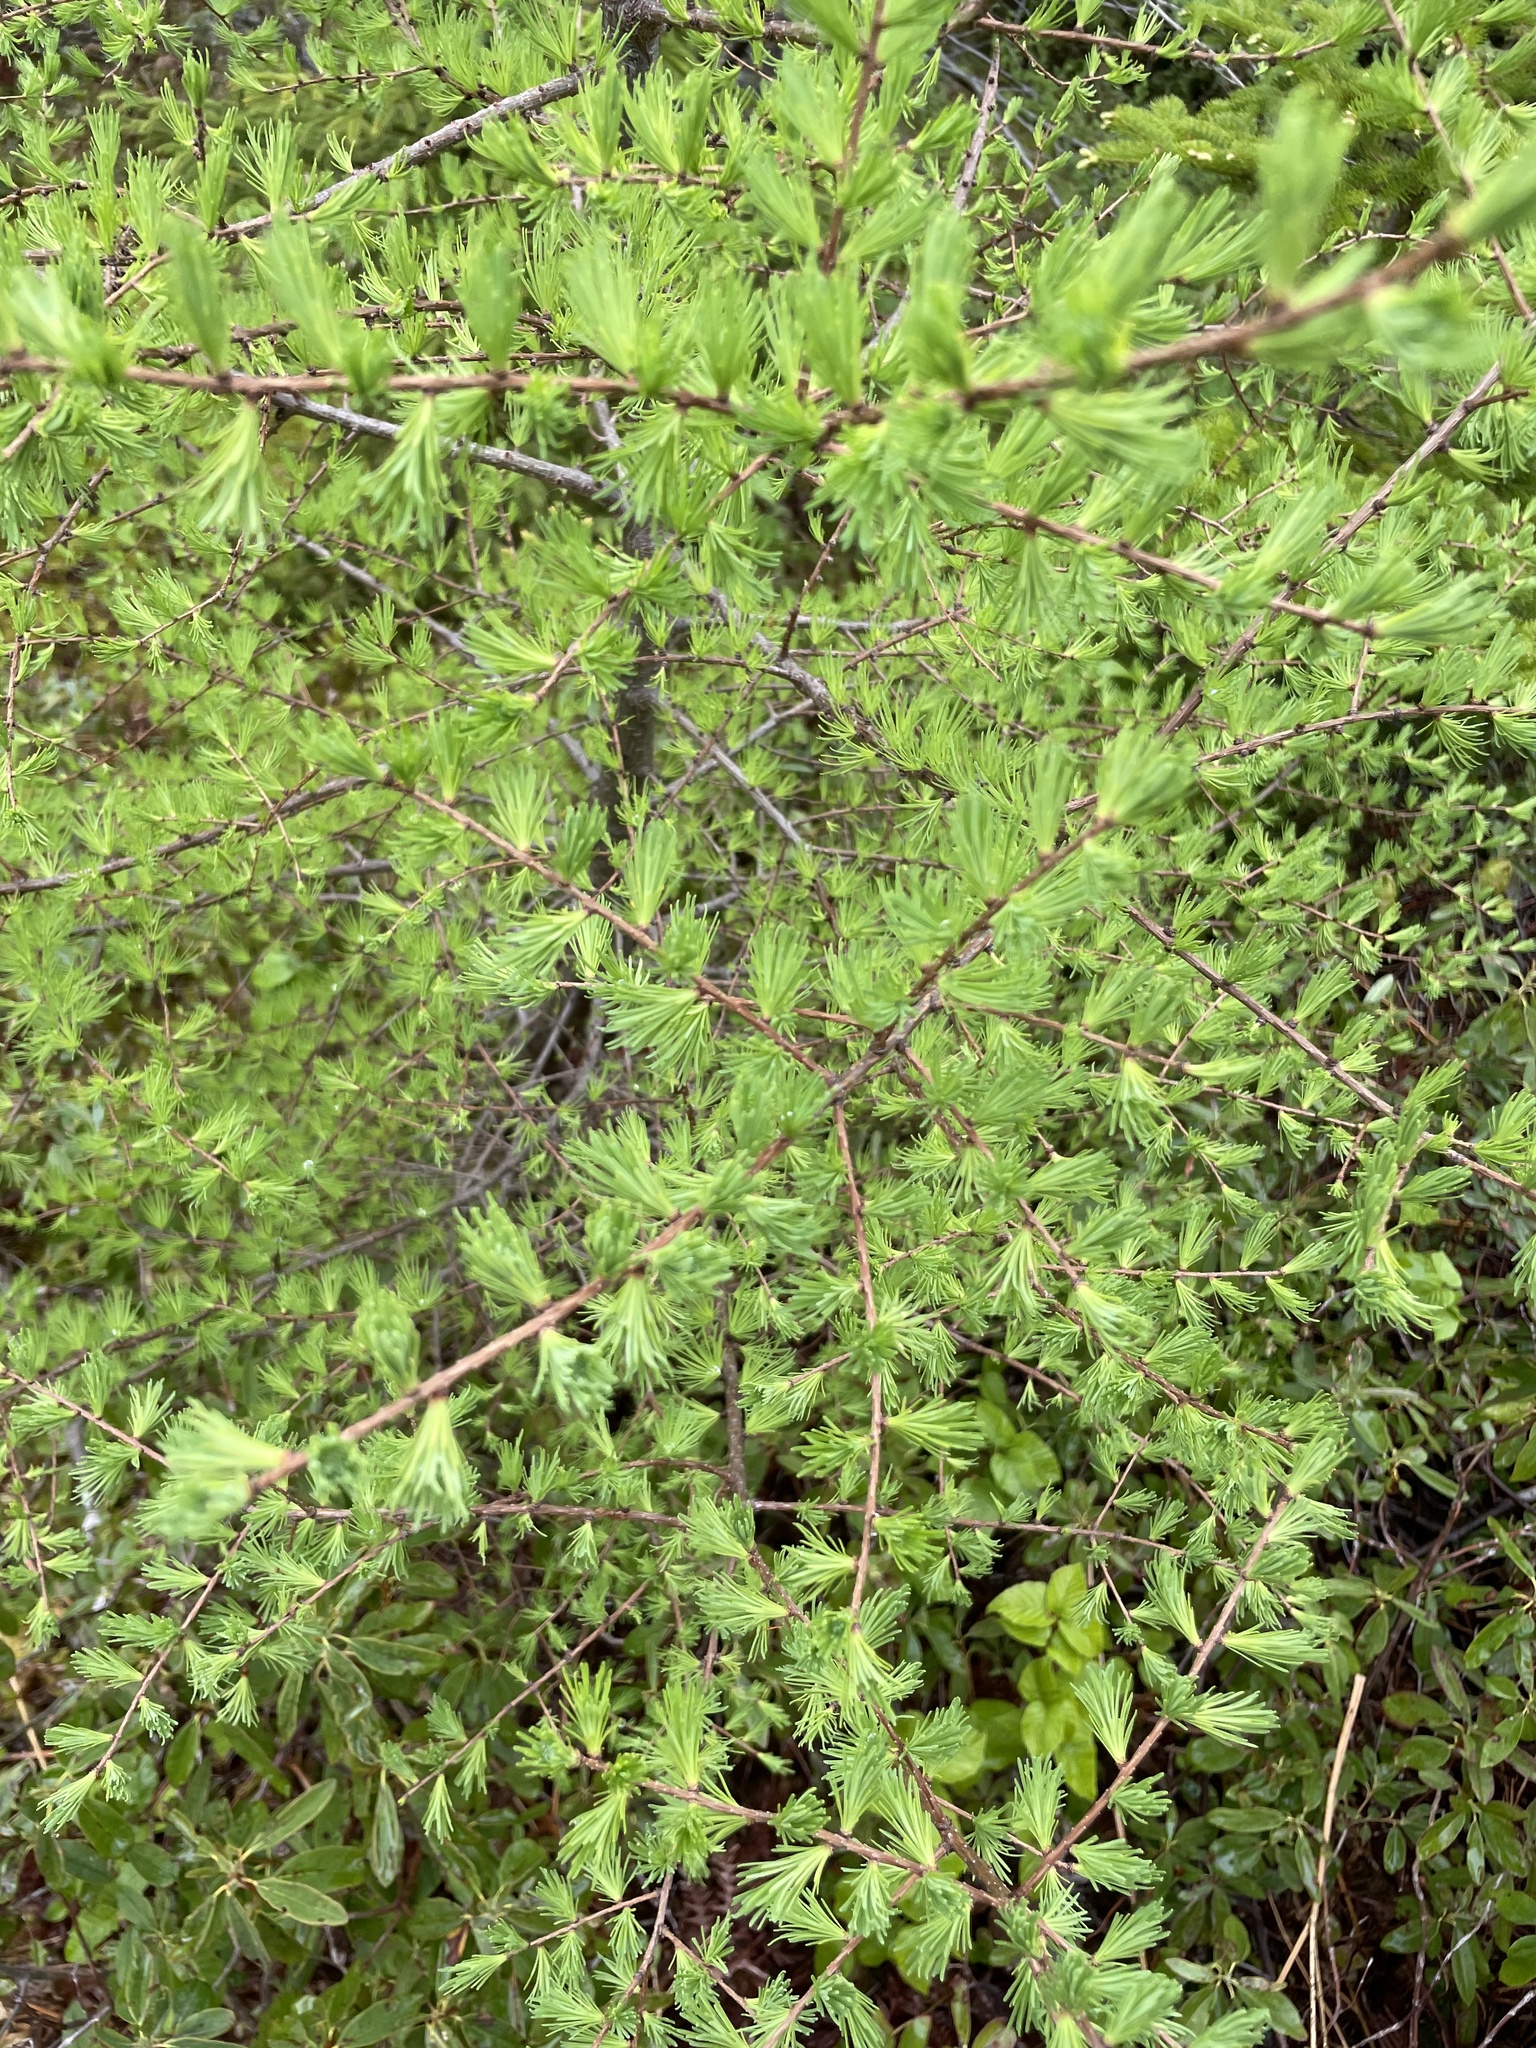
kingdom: Plantae
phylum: Tracheophyta
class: Pinopsida
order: Pinales
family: Pinaceae
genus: Larix
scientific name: Larix laricina
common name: American larch
